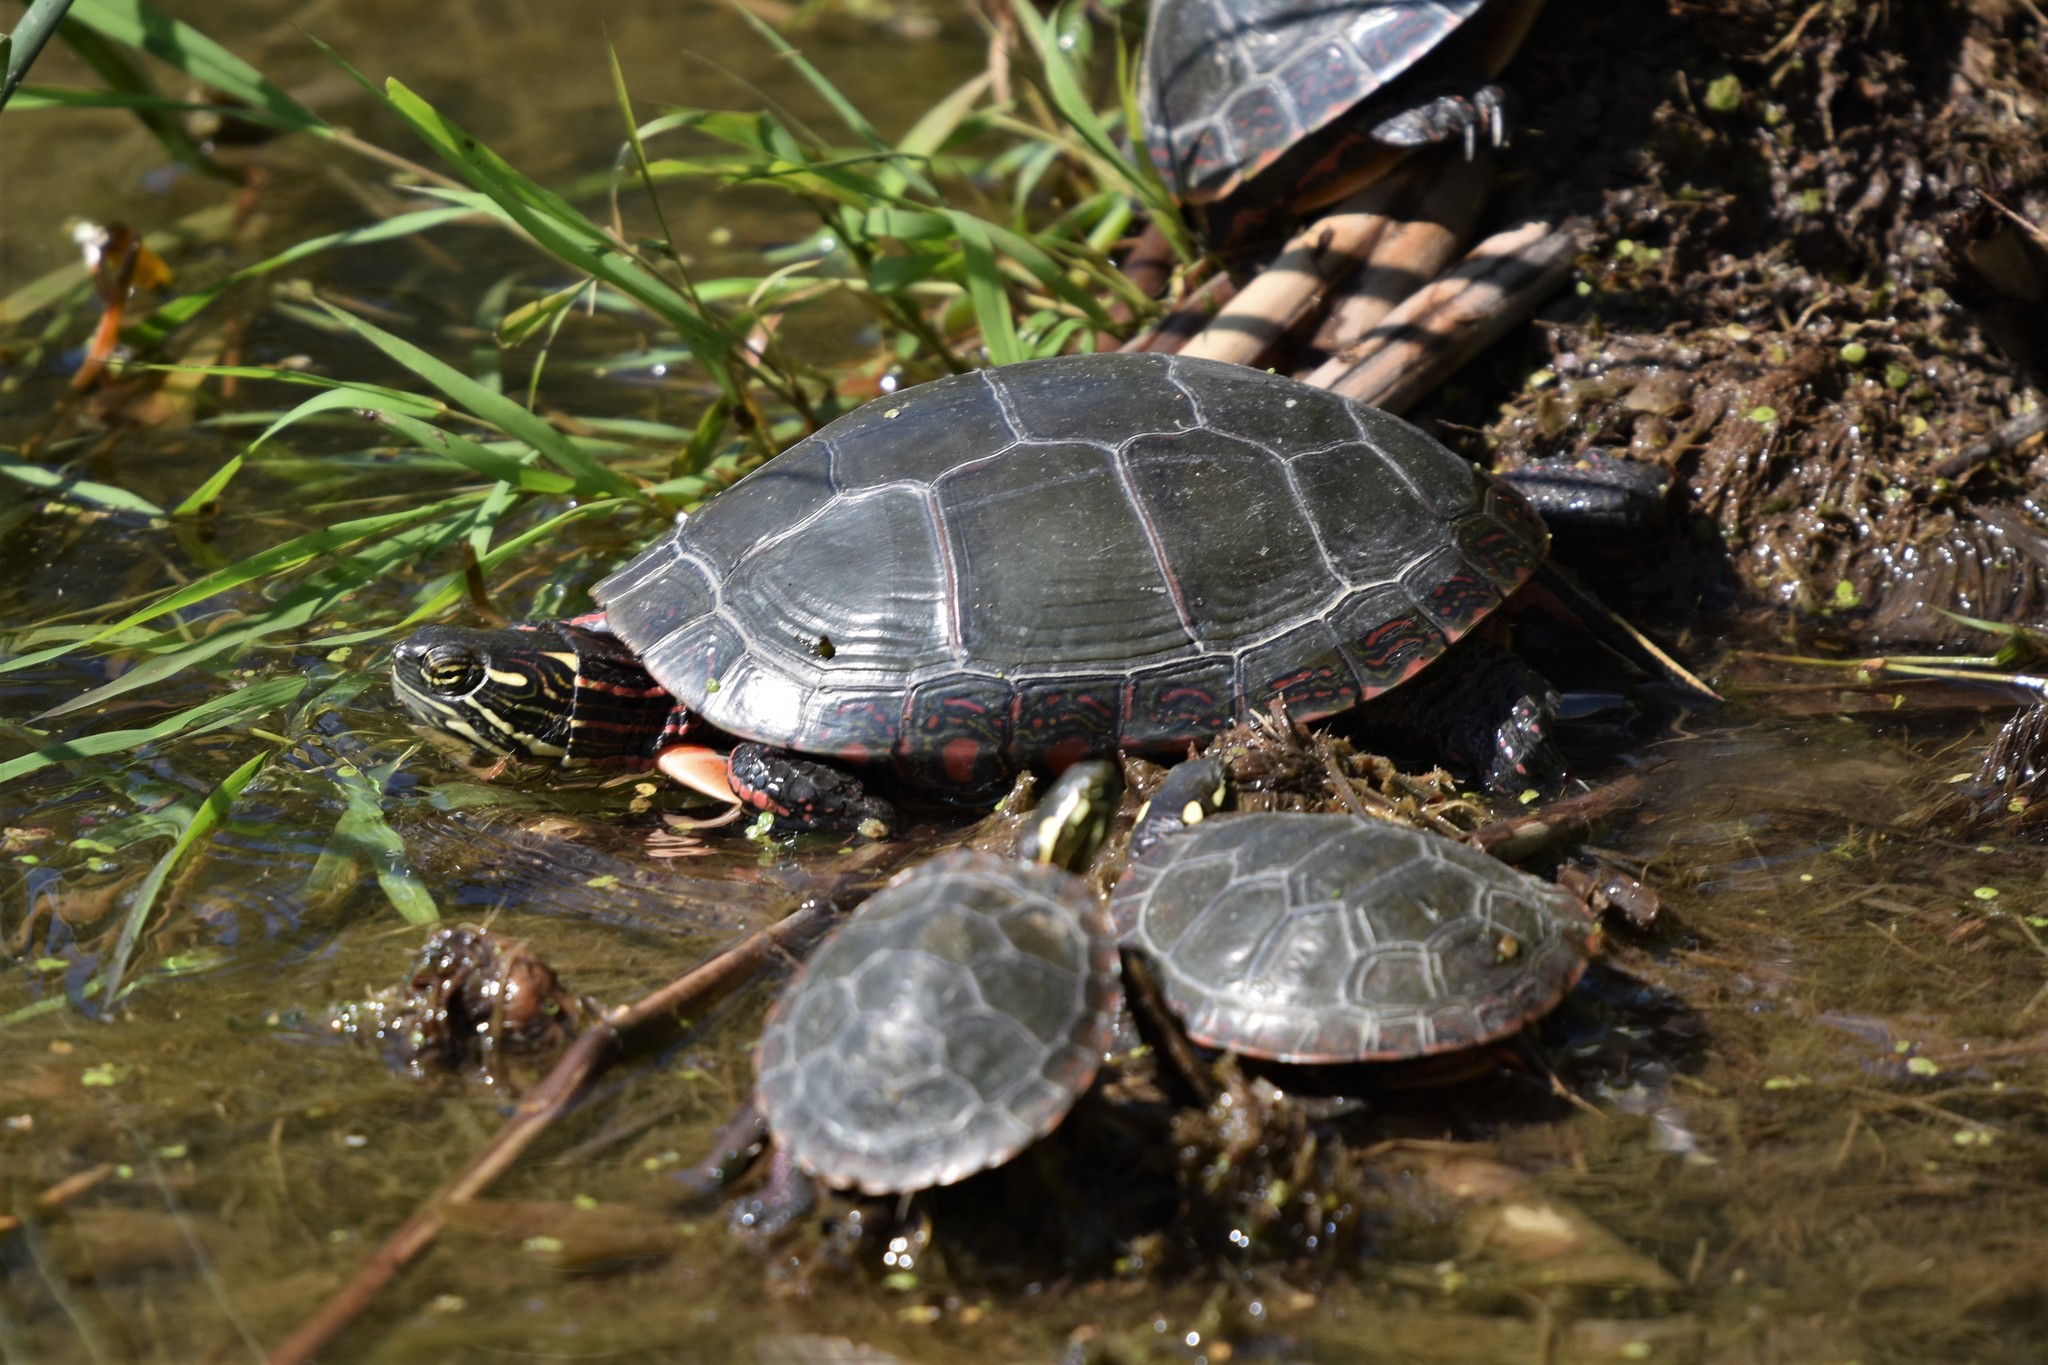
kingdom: Animalia
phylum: Chordata
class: Testudines
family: Emydidae
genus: Chrysemys
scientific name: Chrysemys picta
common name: Painted turtle
